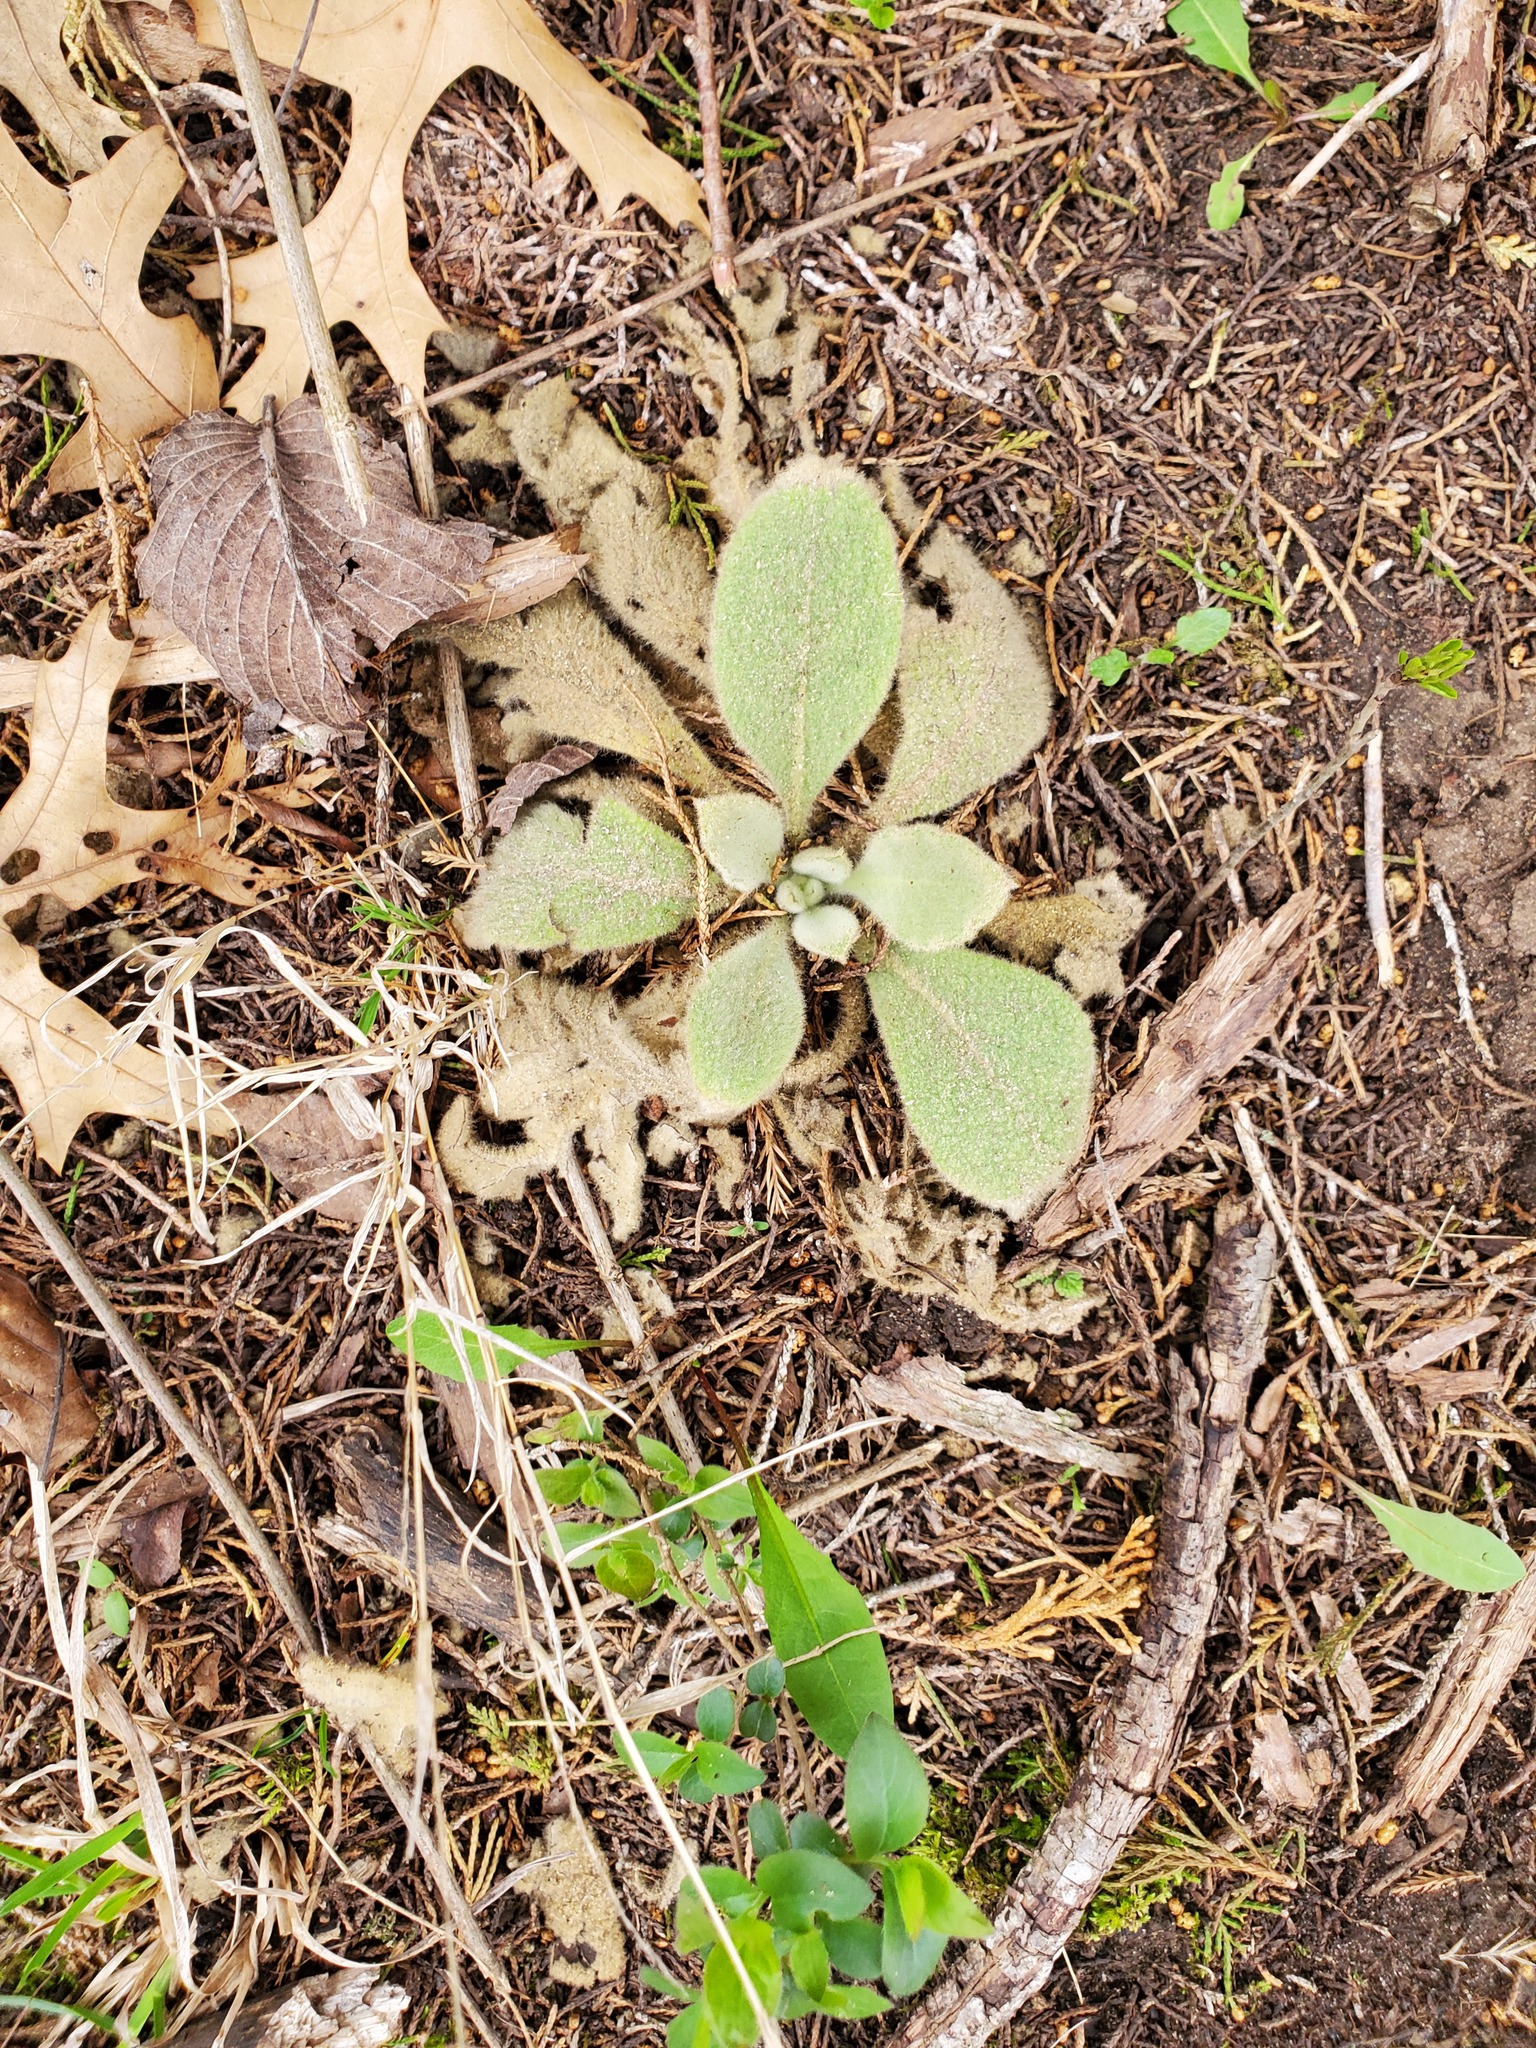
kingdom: Plantae
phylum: Tracheophyta
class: Magnoliopsida
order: Lamiales
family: Scrophulariaceae
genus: Verbascum
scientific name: Verbascum thapsus
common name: Common mullein
